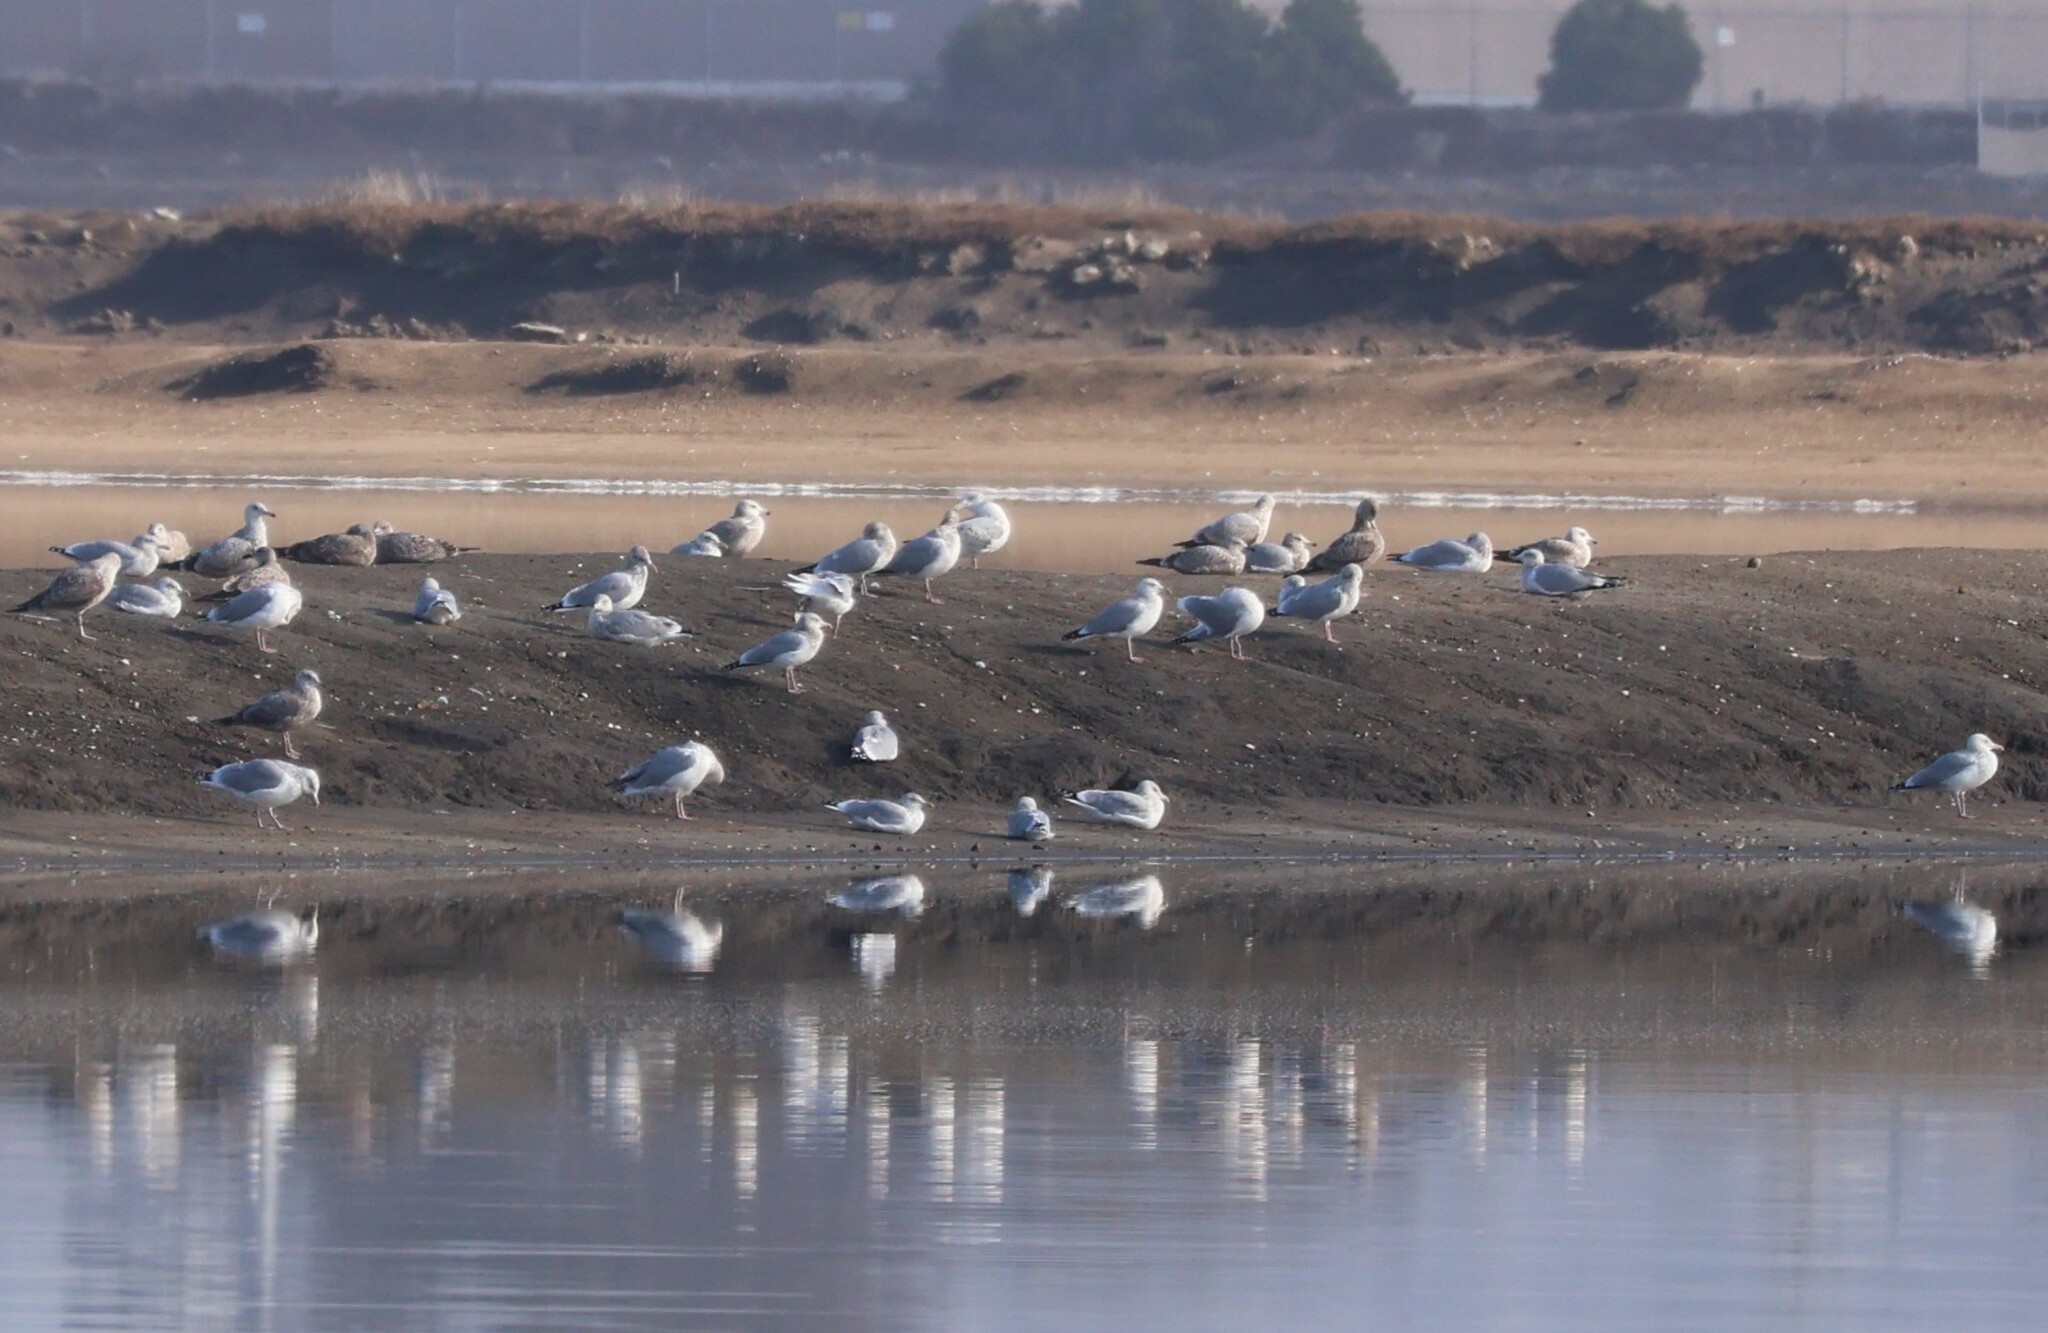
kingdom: Animalia
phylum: Chordata
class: Aves
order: Charadriiformes
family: Laridae
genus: Larus
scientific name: Larus argentatus
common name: Herring gull
